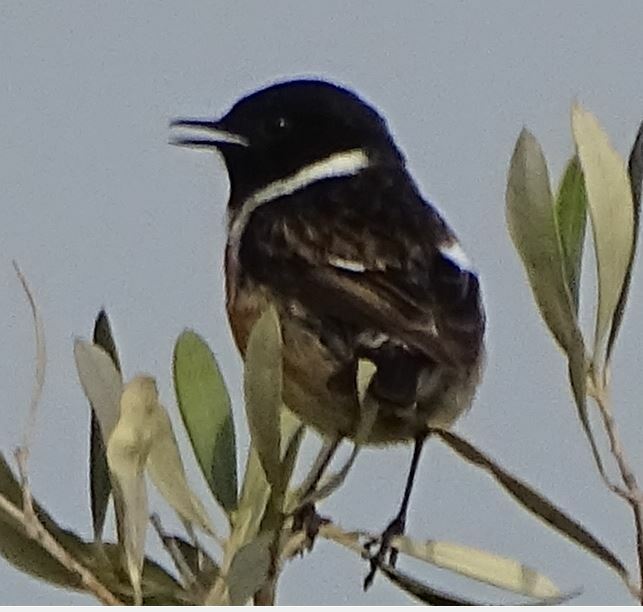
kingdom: Animalia
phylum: Chordata
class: Aves
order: Passeriformes
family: Muscicapidae
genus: Saxicola
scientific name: Saxicola rubicola
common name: European stonechat
